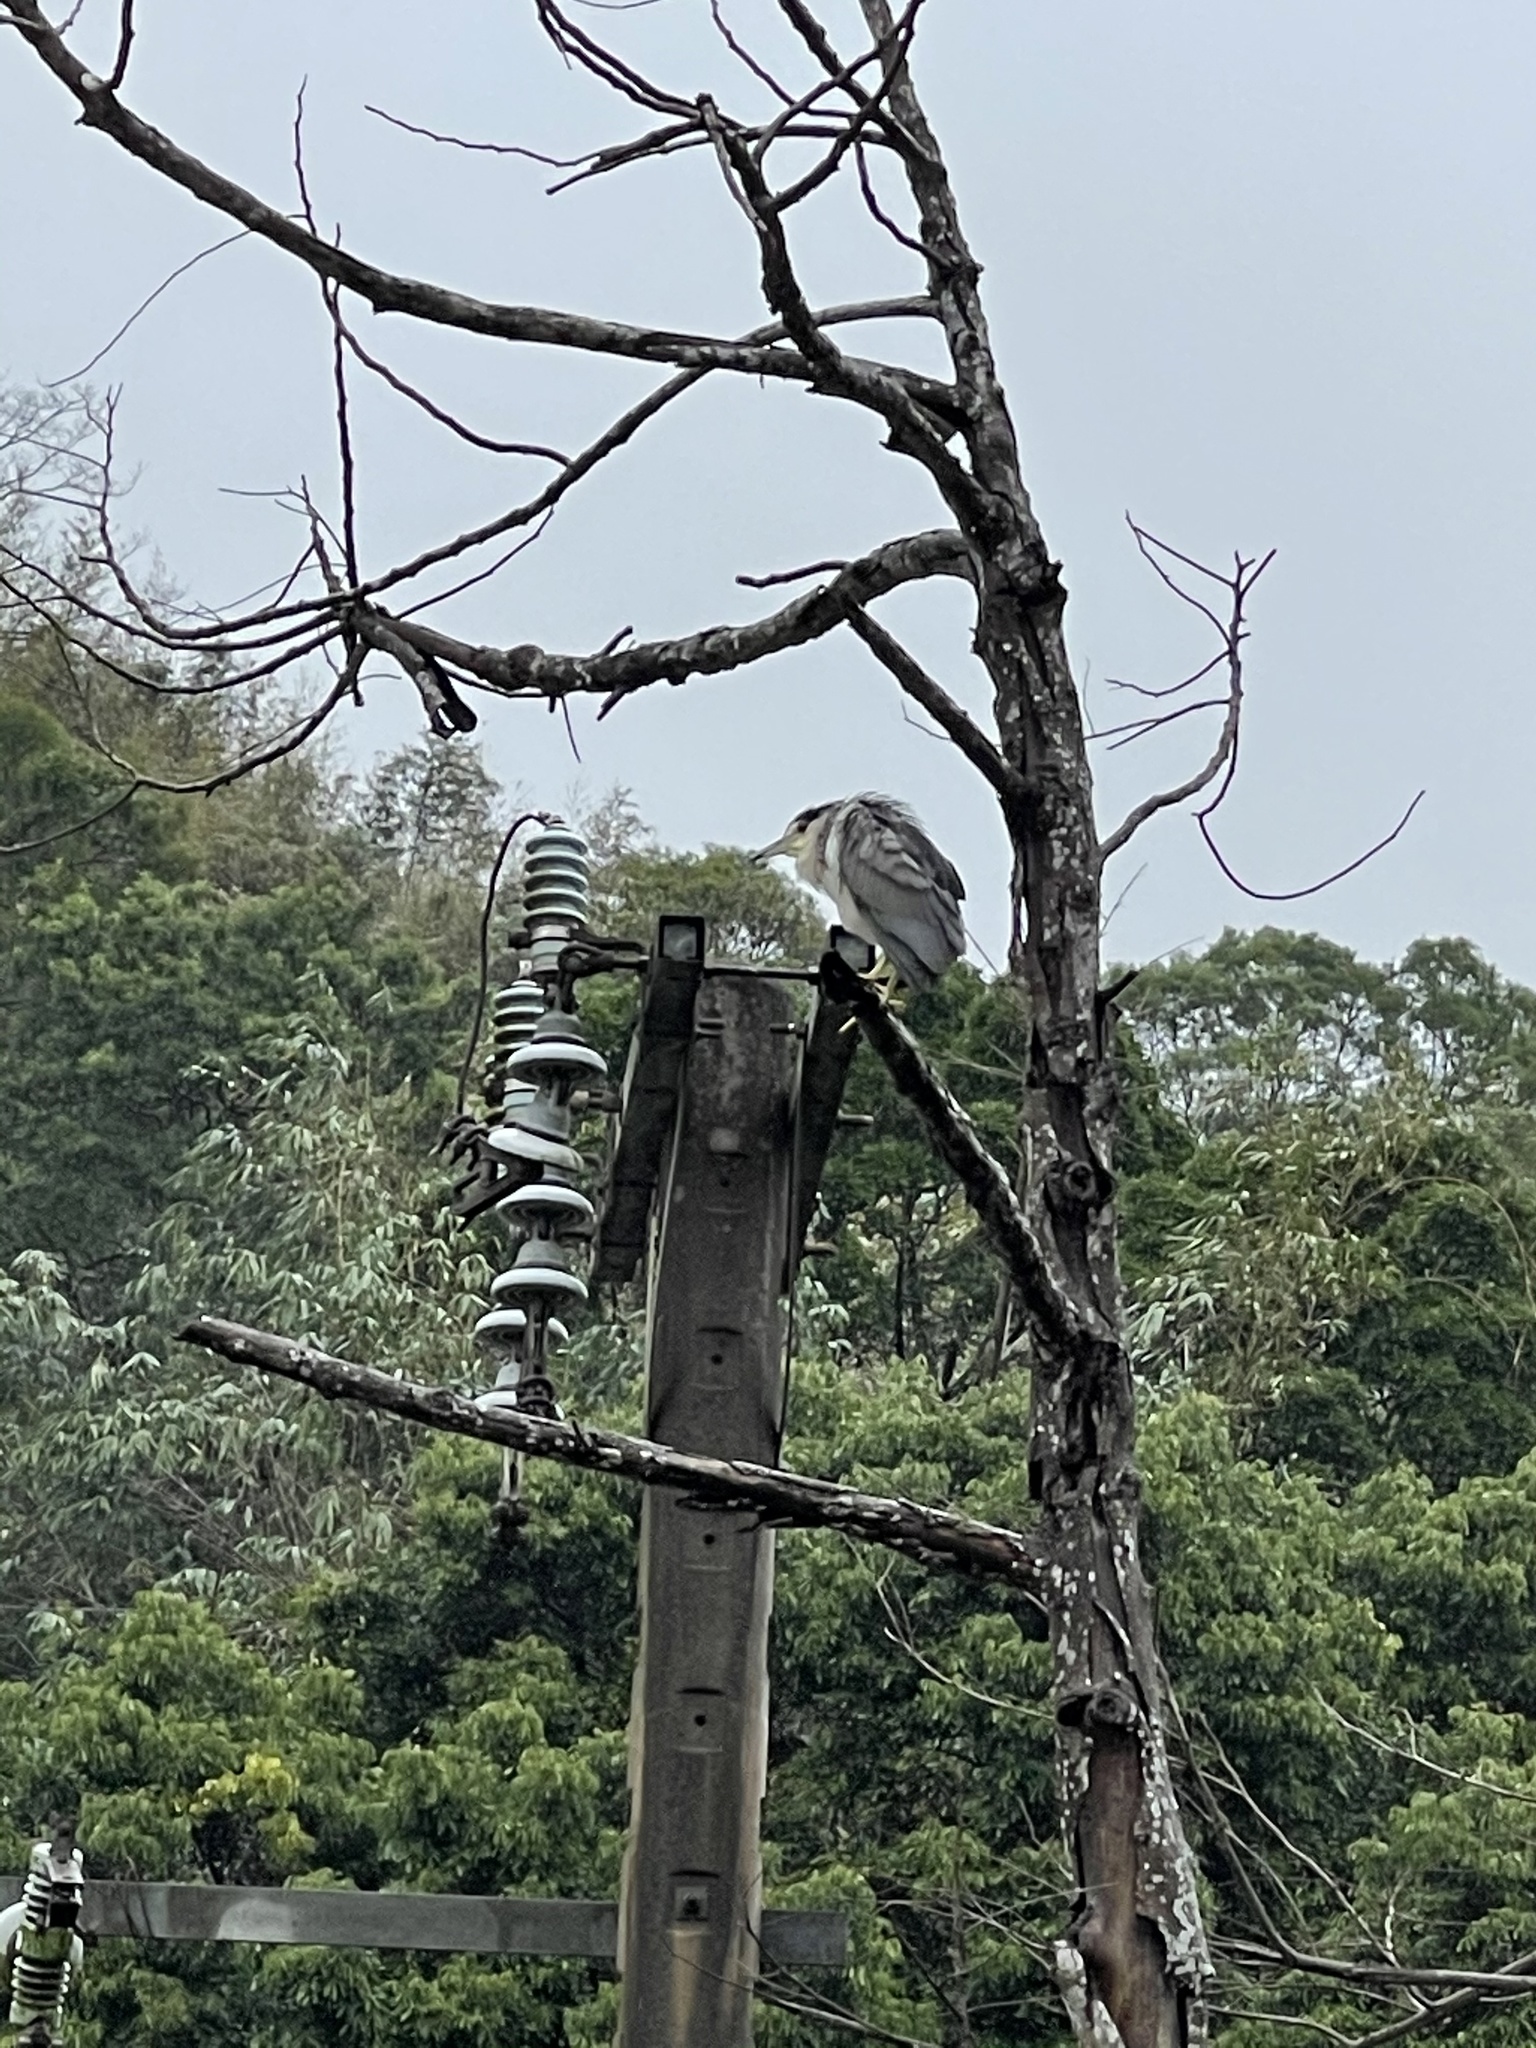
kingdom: Animalia
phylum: Chordata
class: Aves
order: Pelecaniformes
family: Ardeidae
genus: Nycticorax
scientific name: Nycticorax nycticorax
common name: Black-crowned night heron
